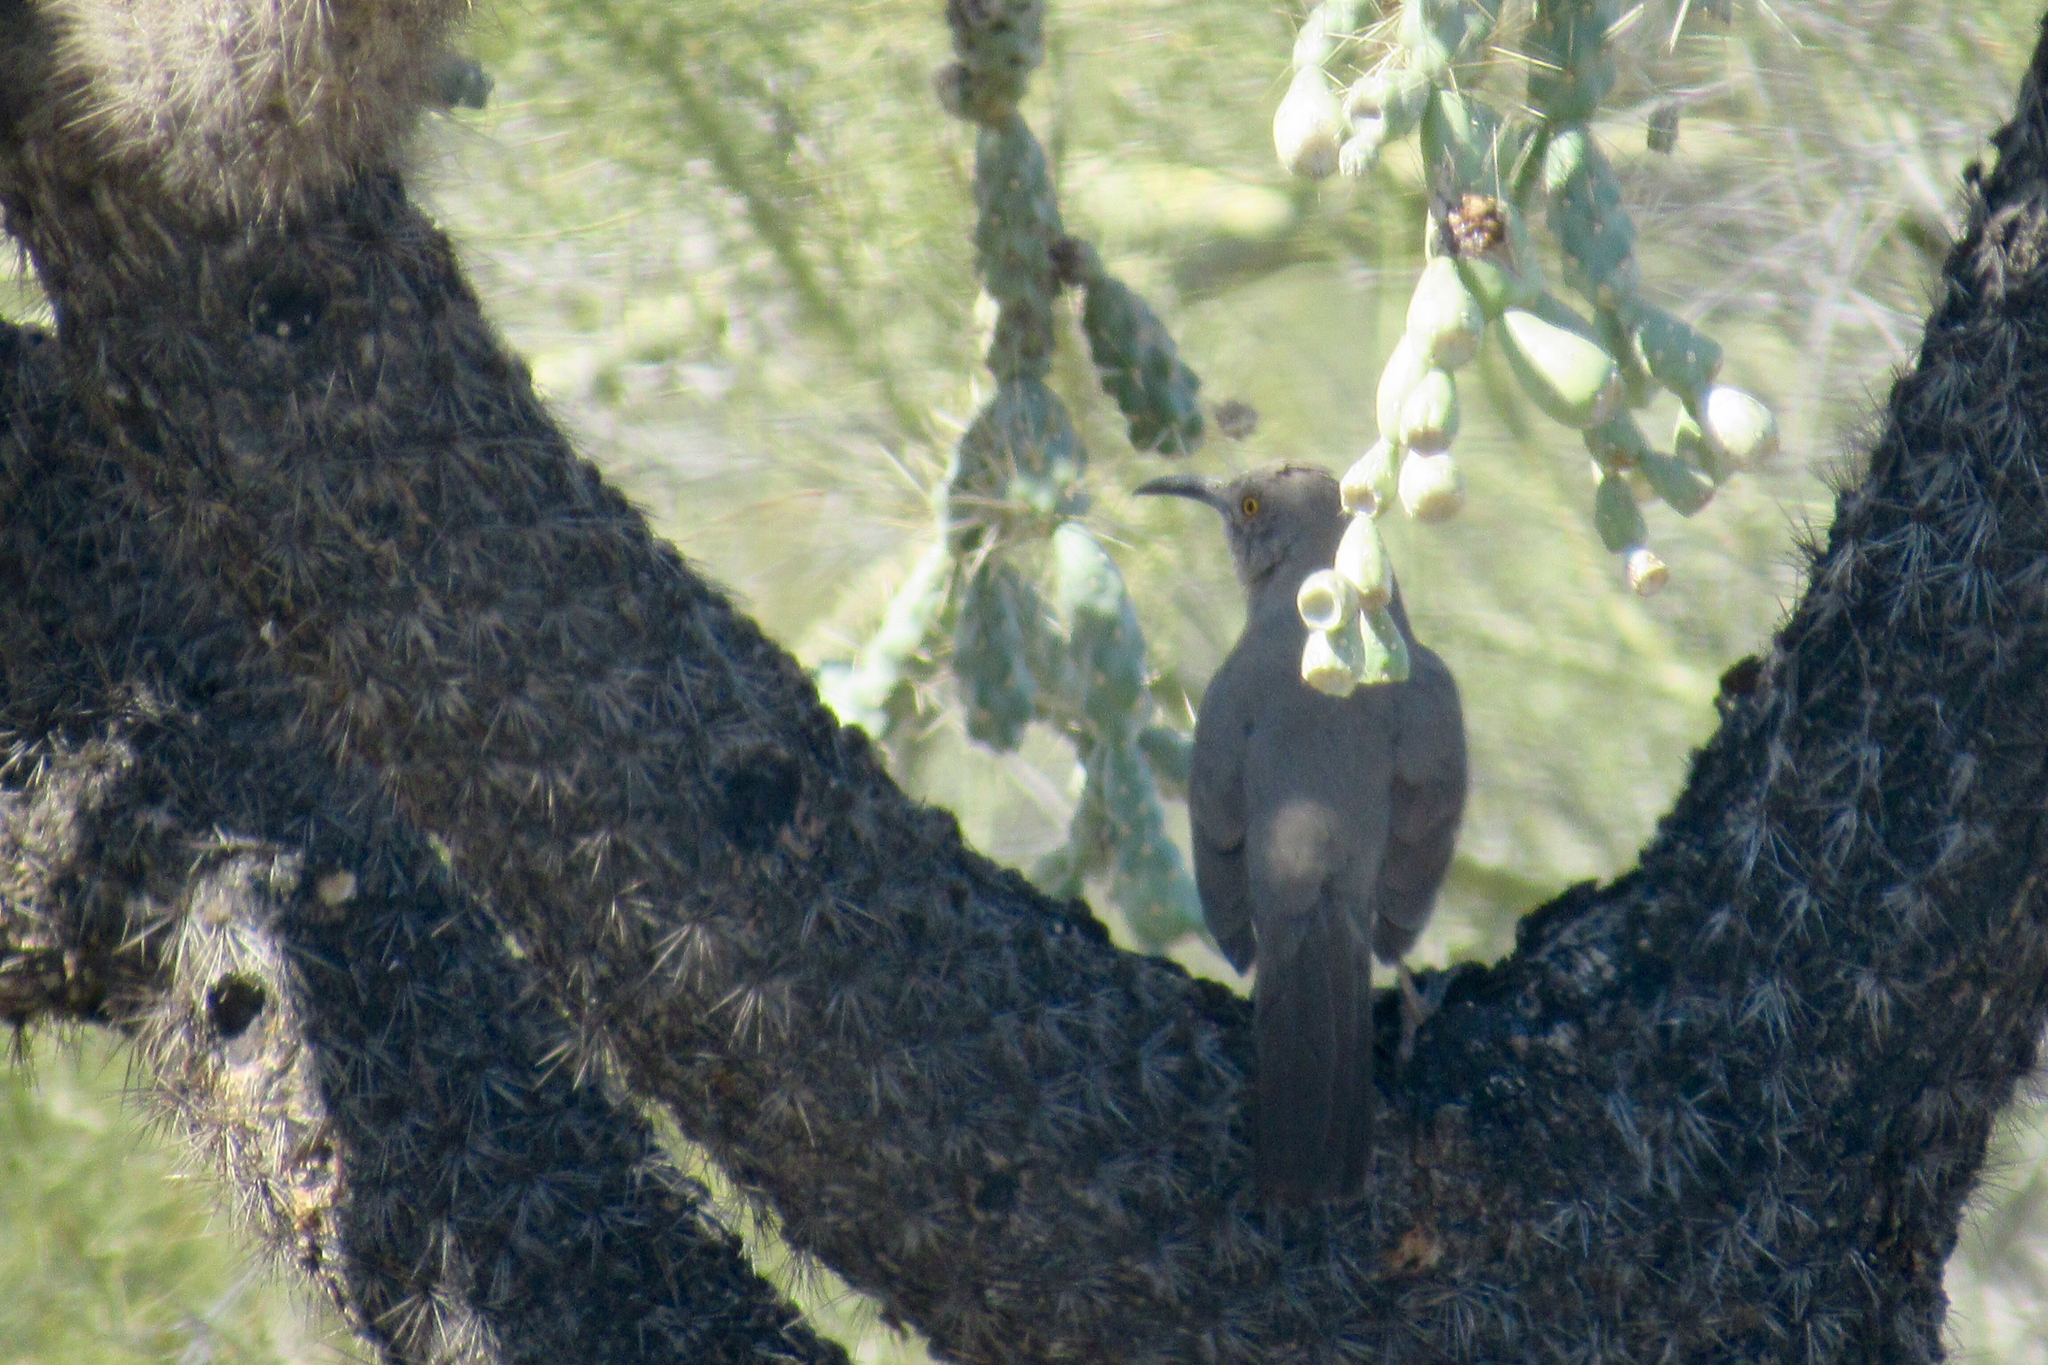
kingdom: Animalia
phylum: Chordata
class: Aves
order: Passeriformes
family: Mimidae
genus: Toxostoma
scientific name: Toxostoma curvirostre
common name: Curve-billed thrasher
